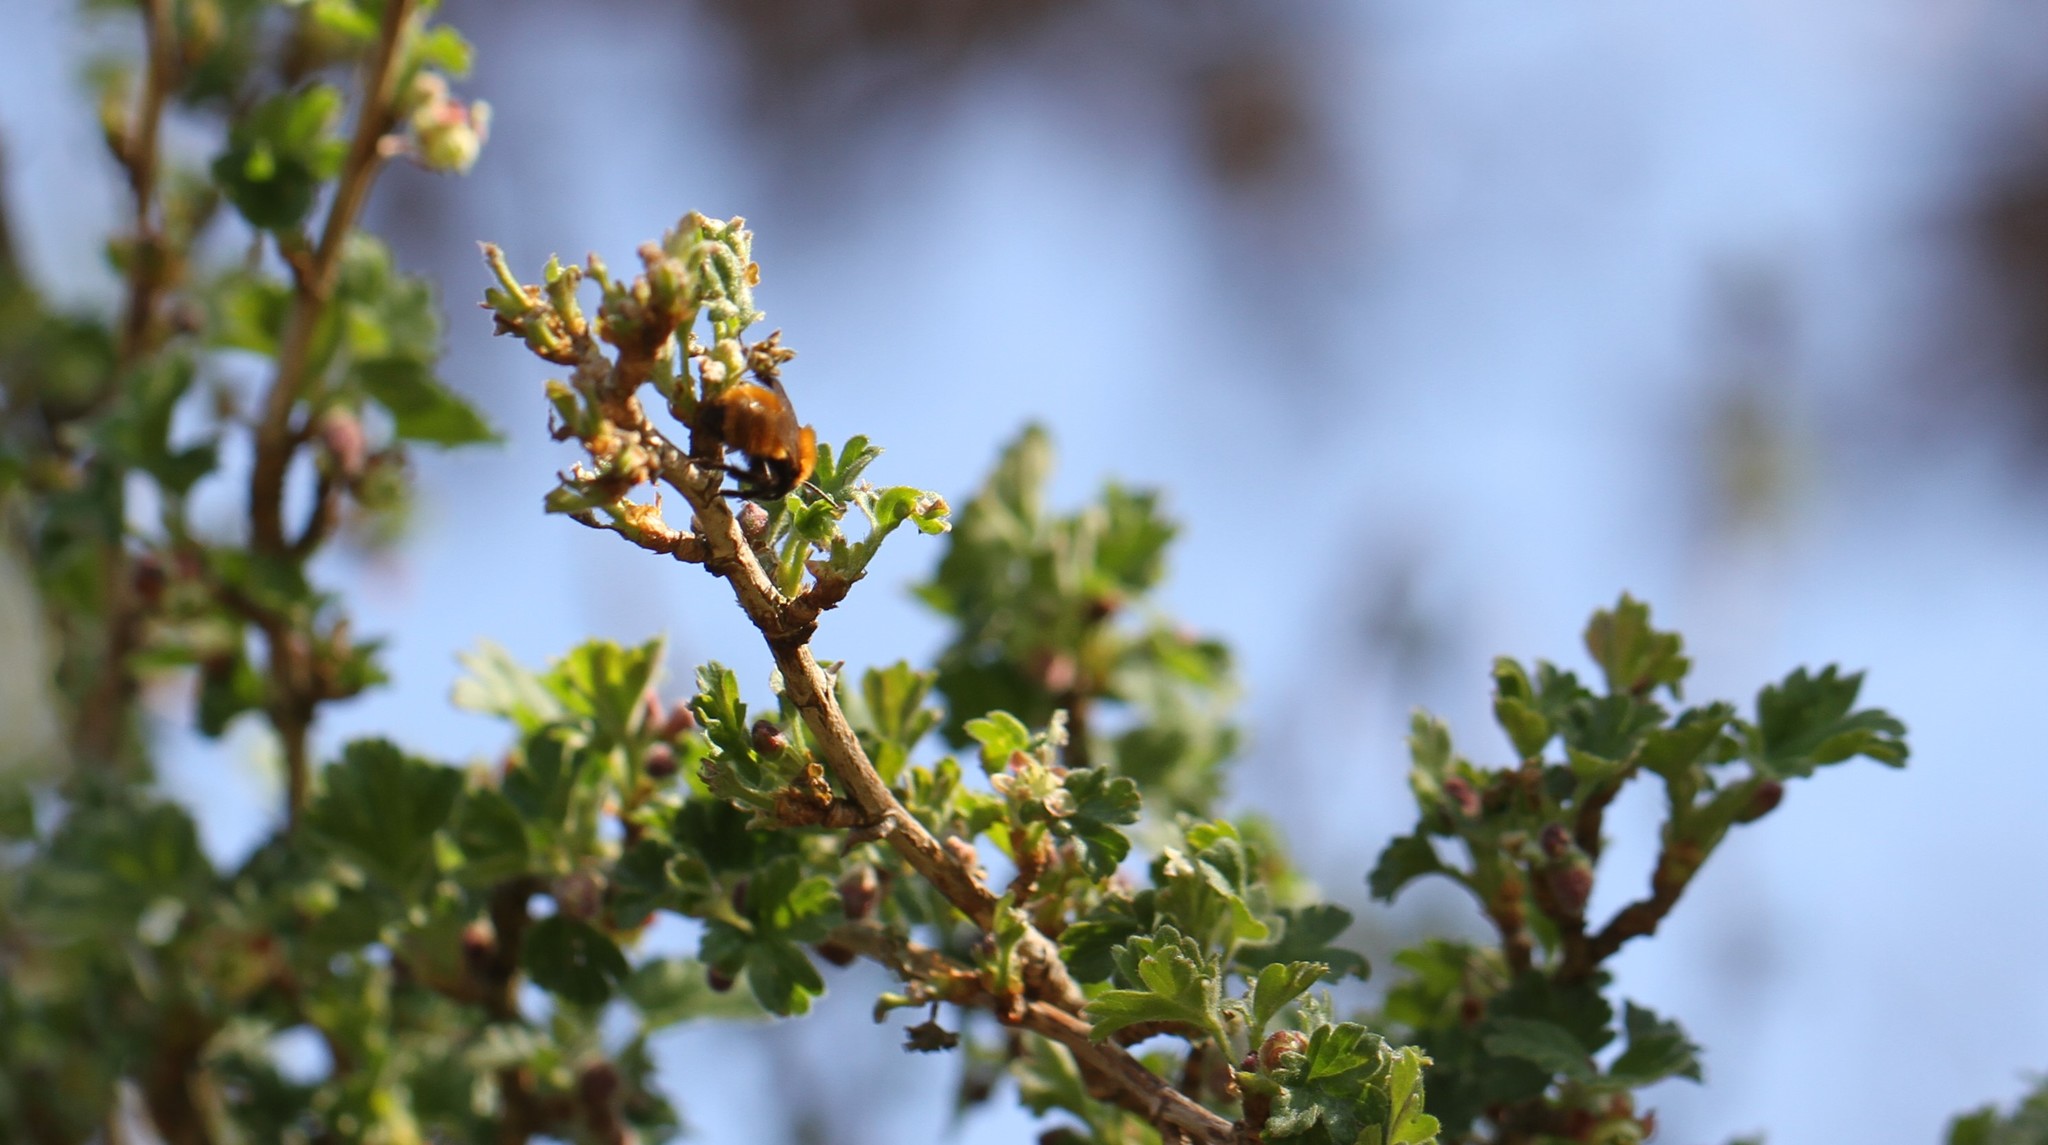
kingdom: Animalia
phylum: Arthropoda
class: Insecta
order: Hymenoptera
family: Andrenidae
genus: Andrena
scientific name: Andrena fulva
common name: Tawny mining bee
